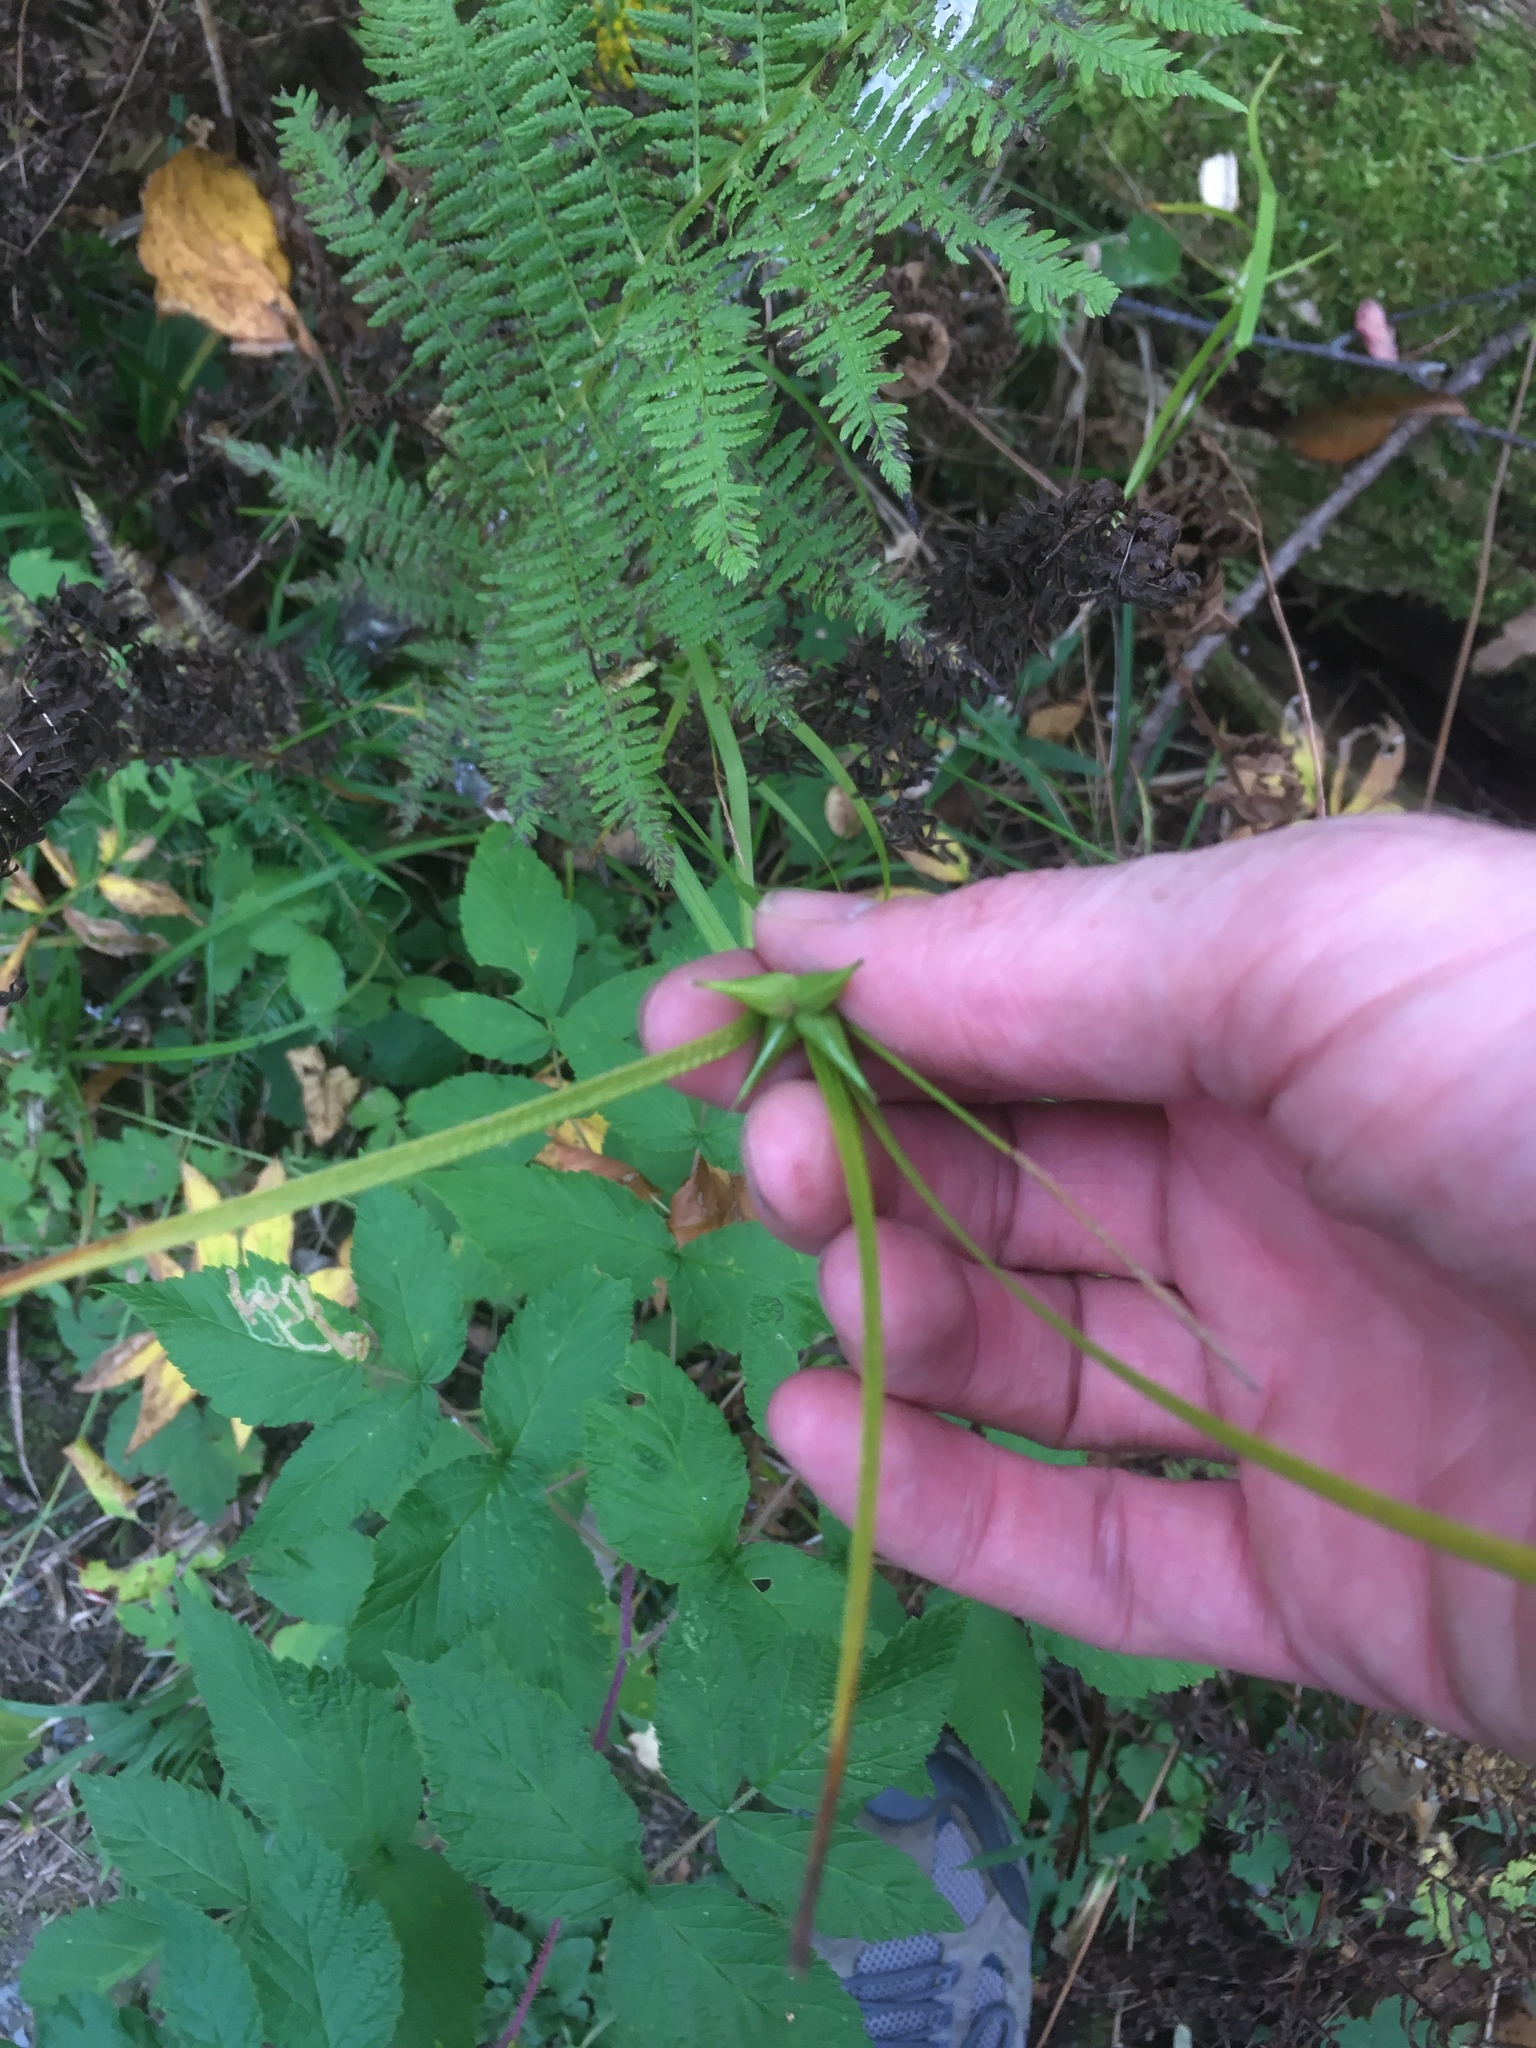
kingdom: Plantae
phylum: Tracheophyta
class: Liliopsida
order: Poales
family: Cyperaceae
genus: Carex
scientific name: Carex intumescens
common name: Greater bladder sedge
